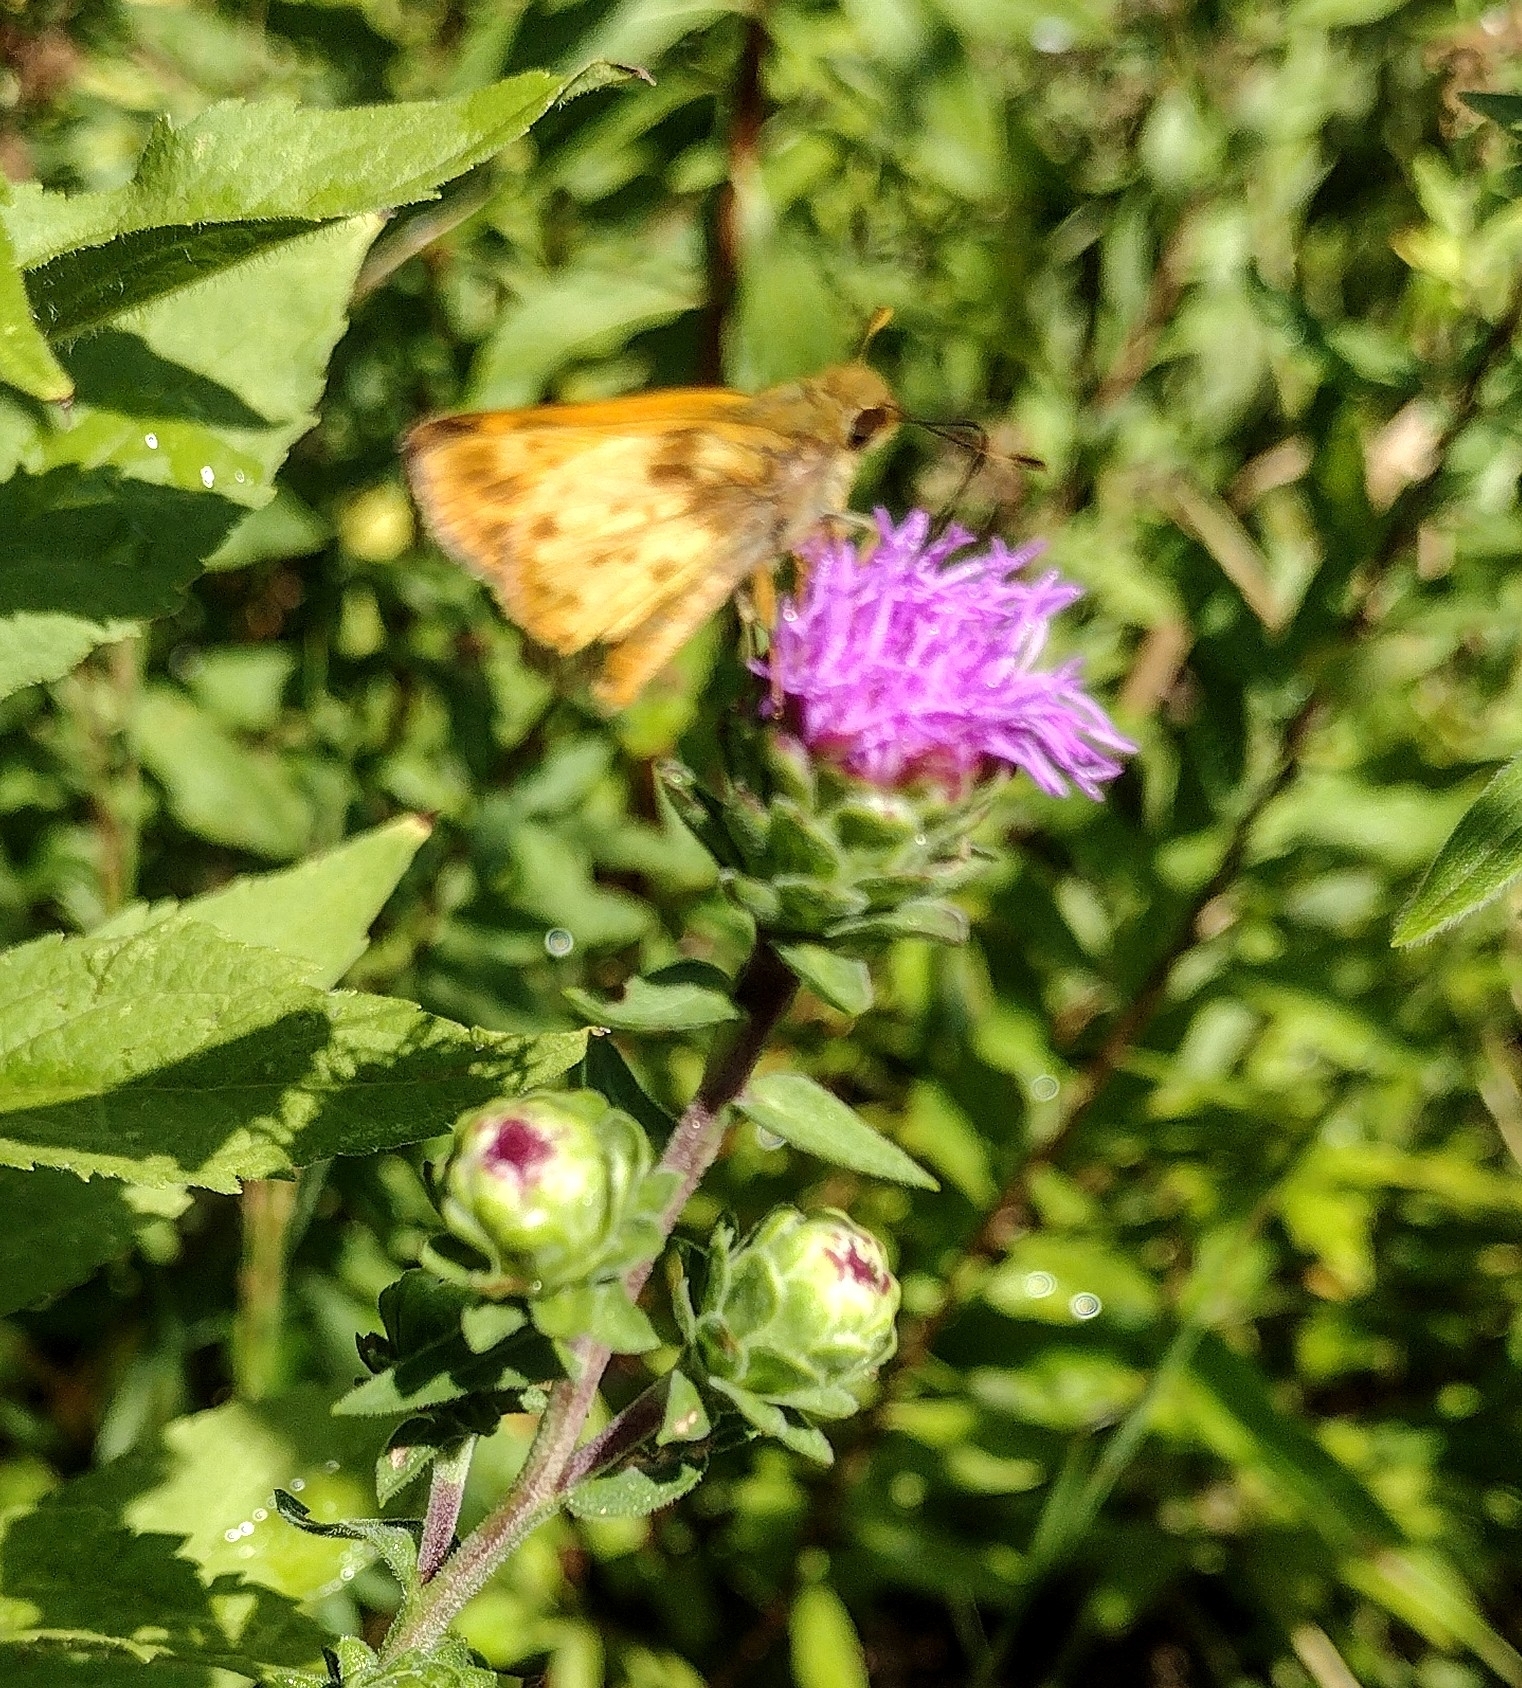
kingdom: Animalia
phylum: Arthropoda
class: Insecta
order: Lepidoptera
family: Hesperiidae
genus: Lon
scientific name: Lon zabulon
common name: Zabulon skipper
